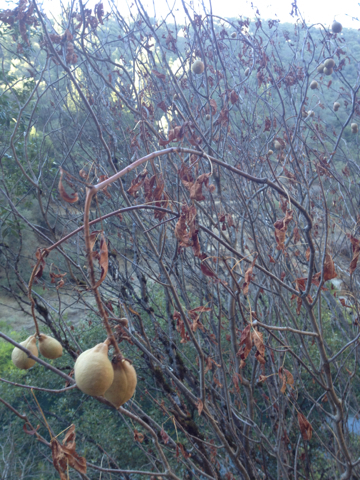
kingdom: Plantae
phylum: Tracheophyta
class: Magnoliopsida
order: Sapindales
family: Sapindaceae
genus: Aesculus
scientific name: Aesculus californica
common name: California buckeye
